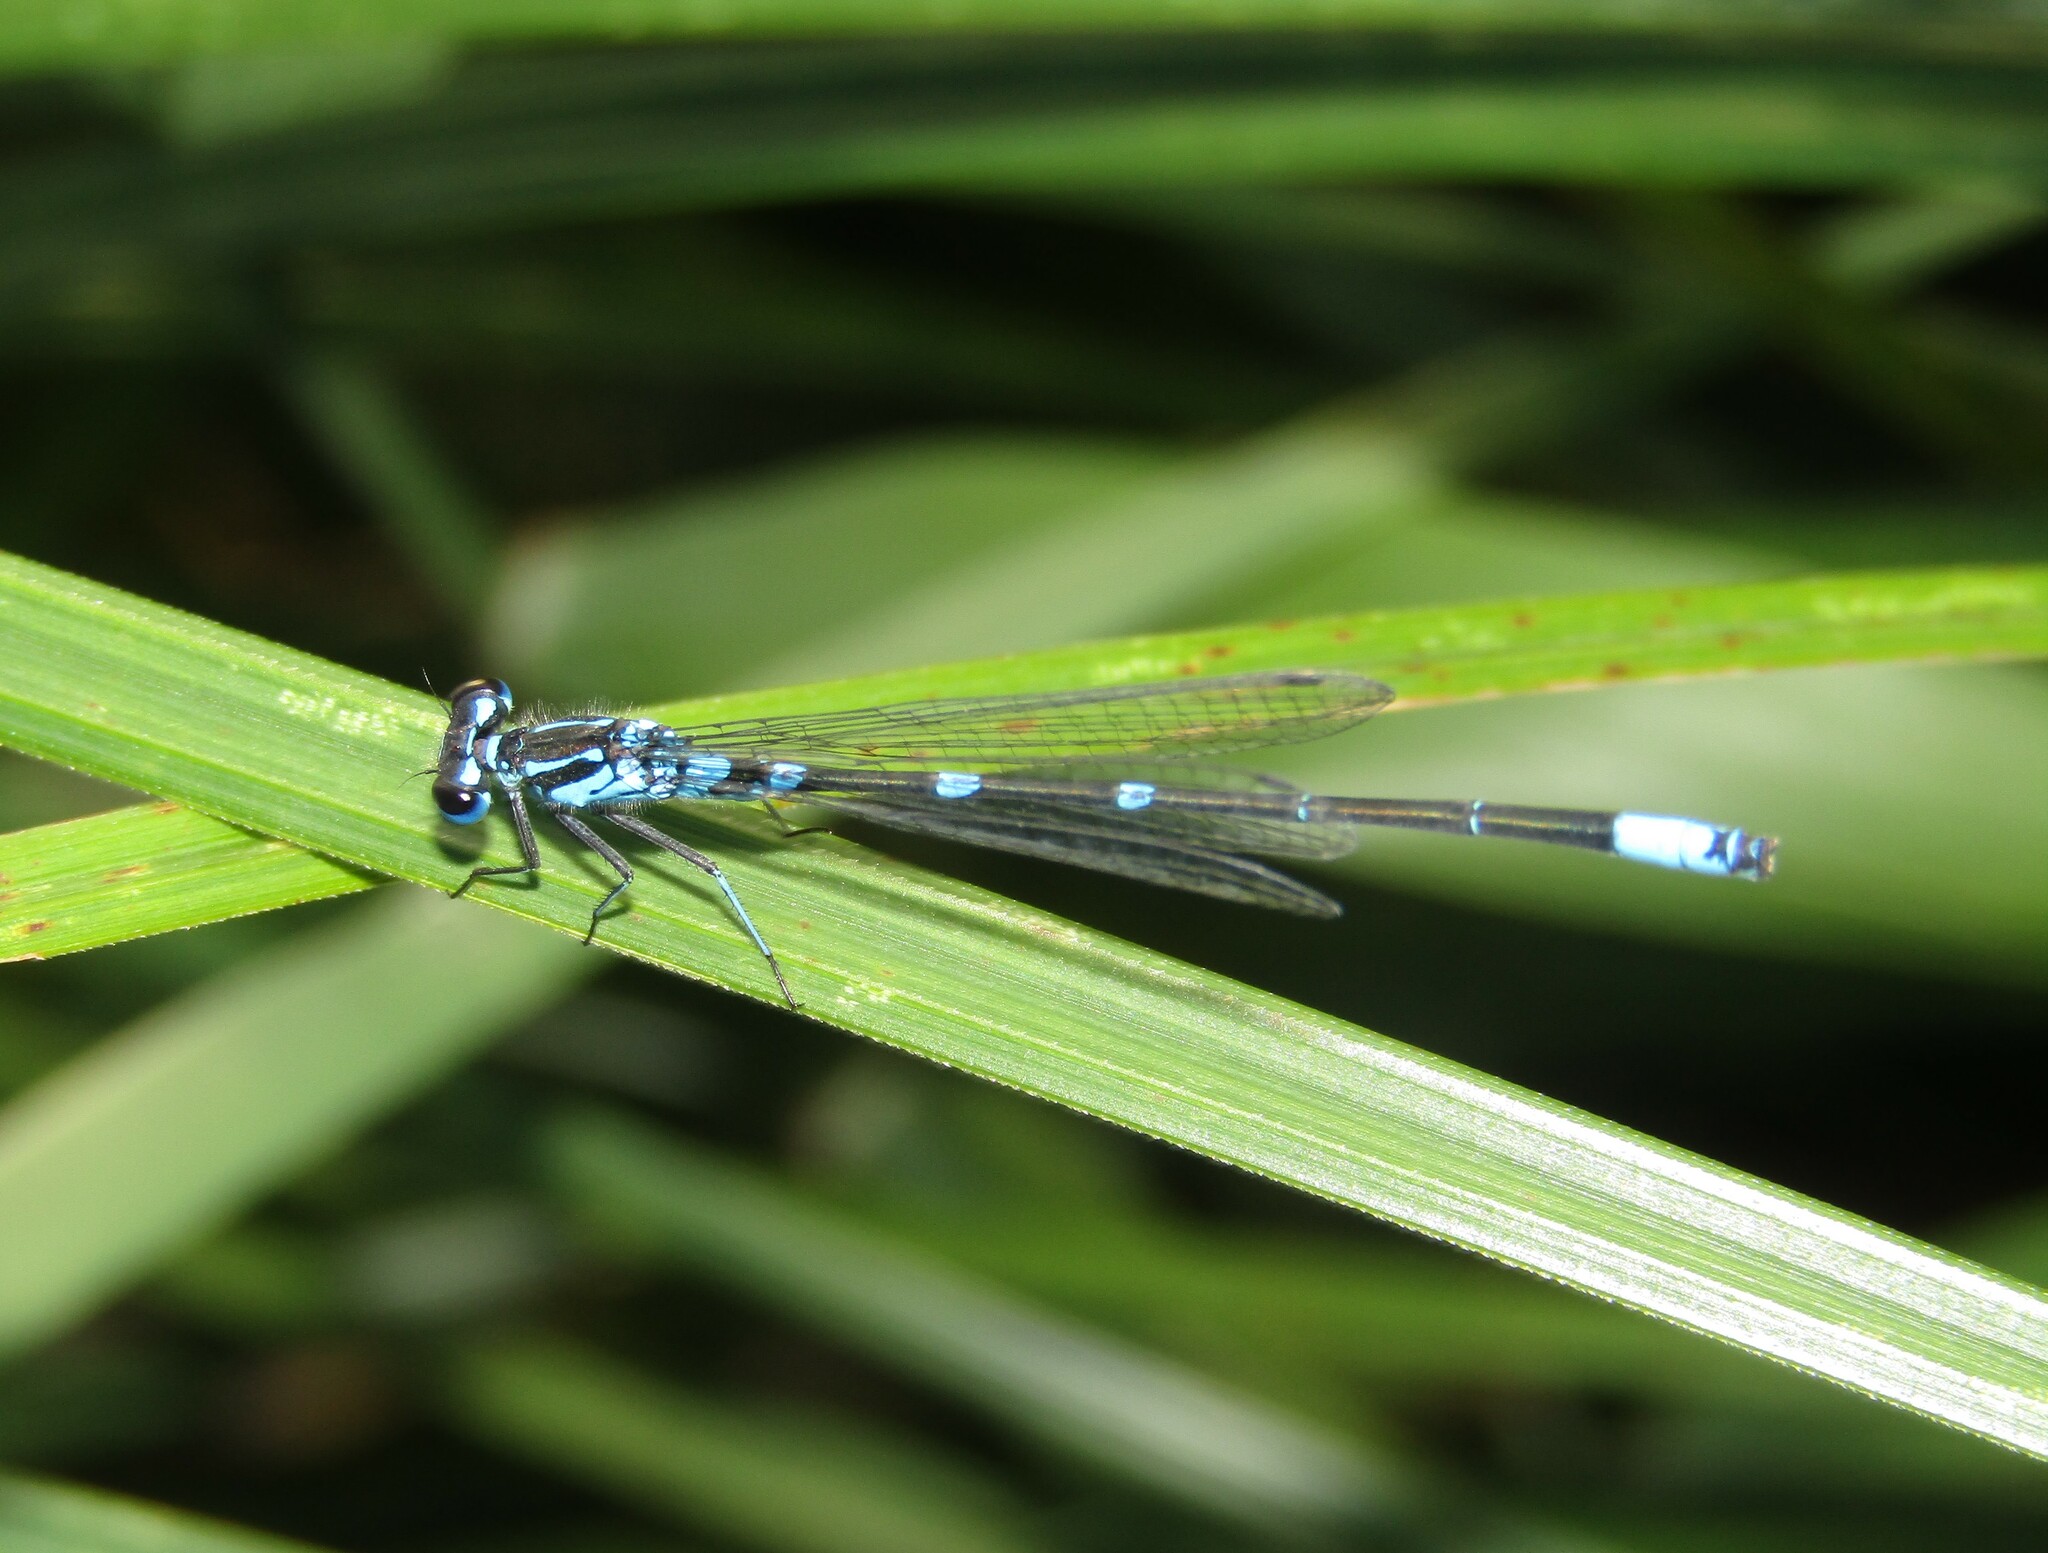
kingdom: Animalia
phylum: Arthropoda
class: Insecta
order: Odonata
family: Coenagrionidae
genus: Coenagrion
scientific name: Coenagrion pulchellum
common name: Variable bluet
